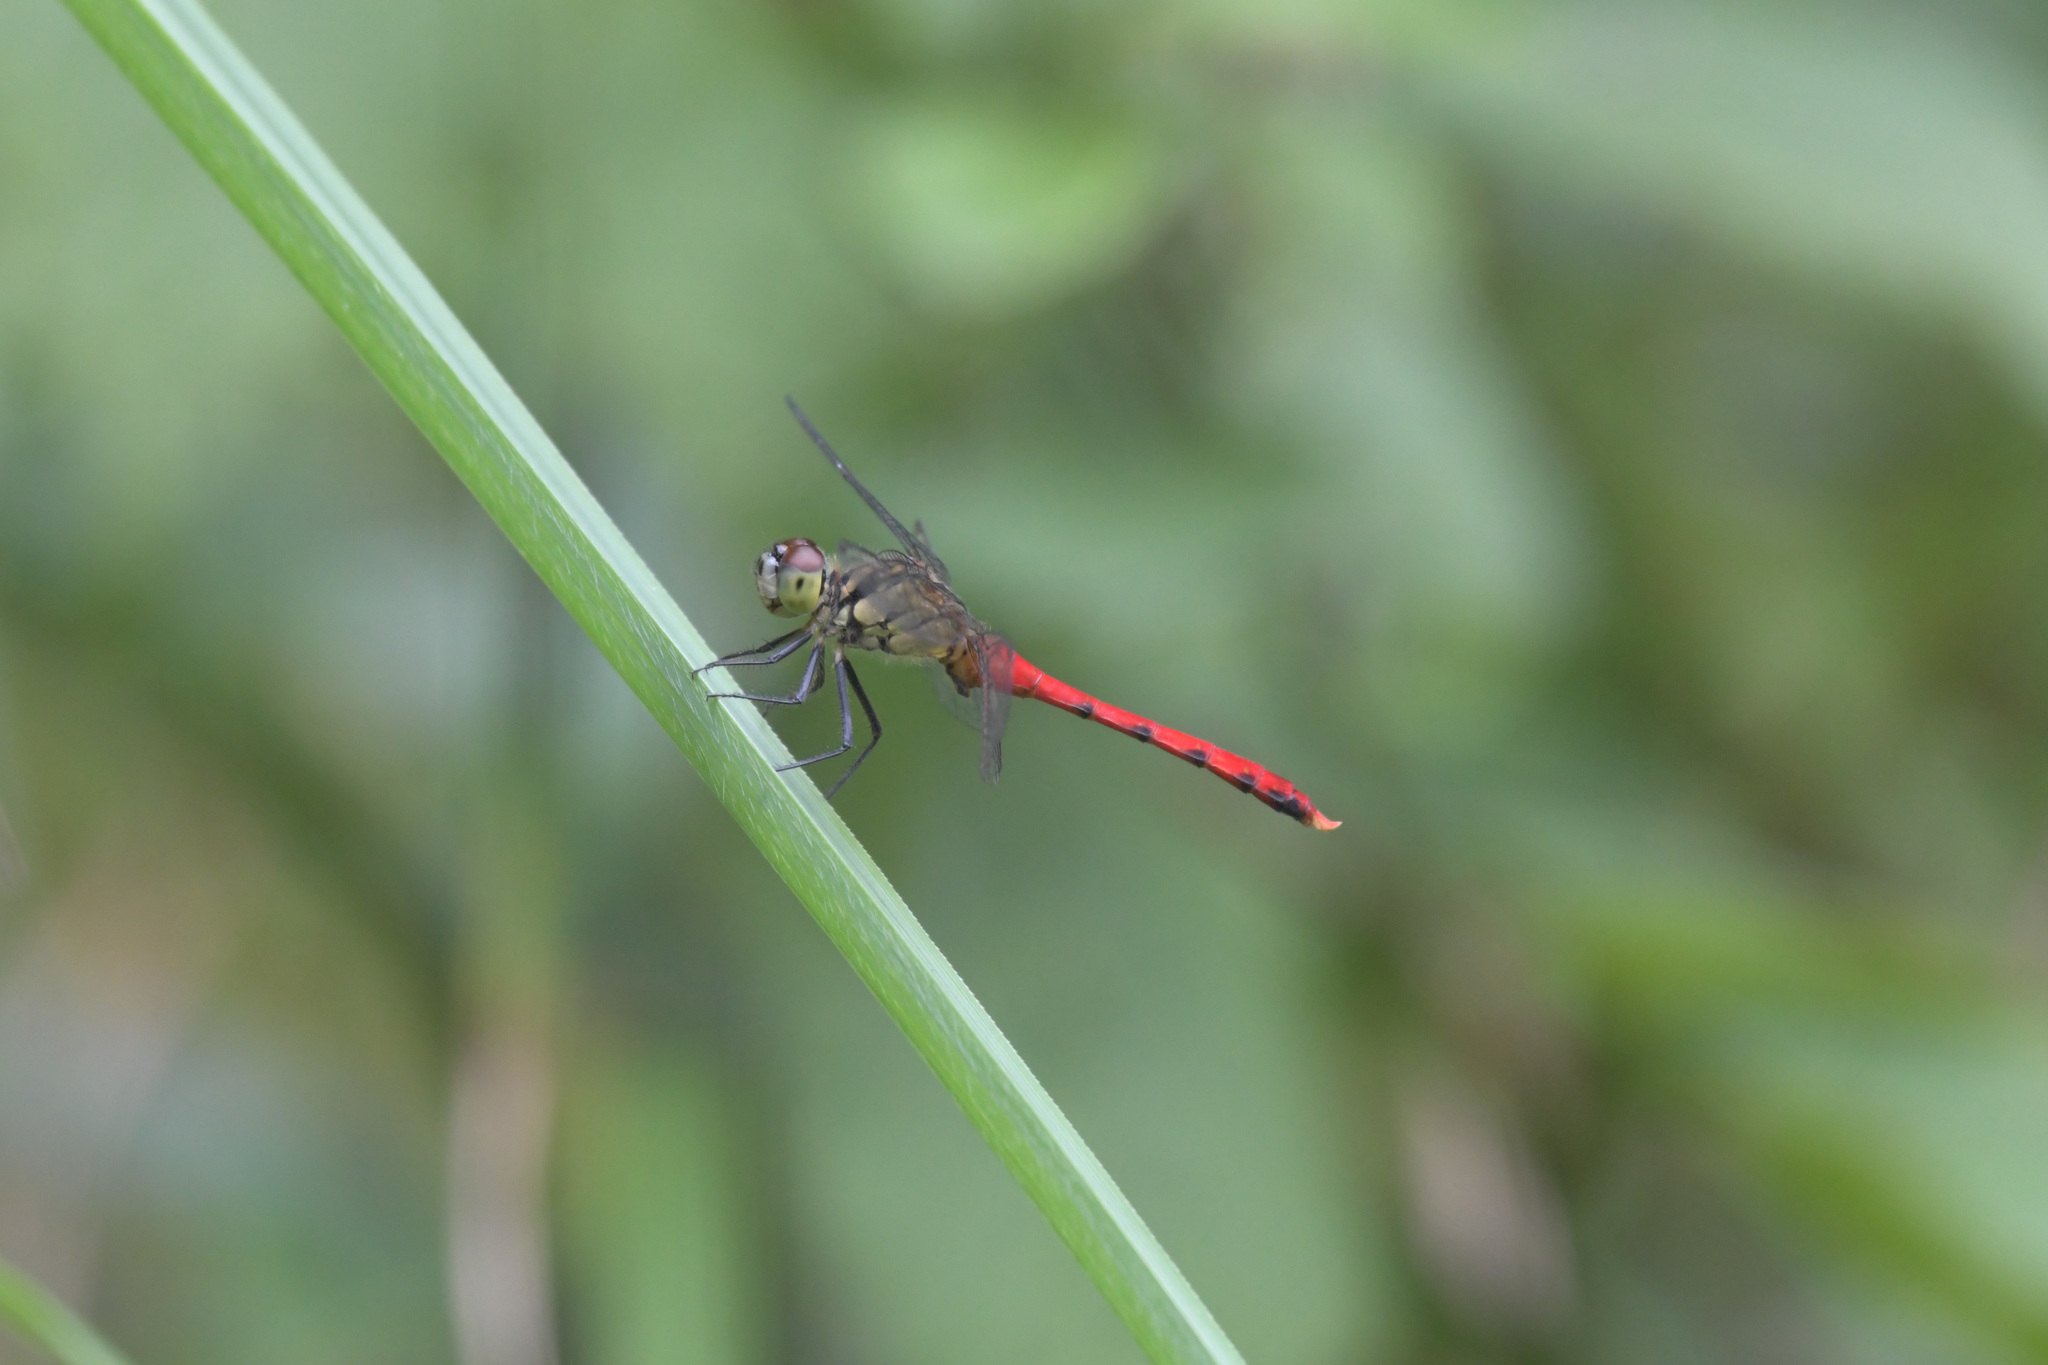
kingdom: Animalia
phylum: Arthropoda
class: Insecta
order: Odonata
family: Libellulidae
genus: Sympetrum
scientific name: Sympetrum eroticum
